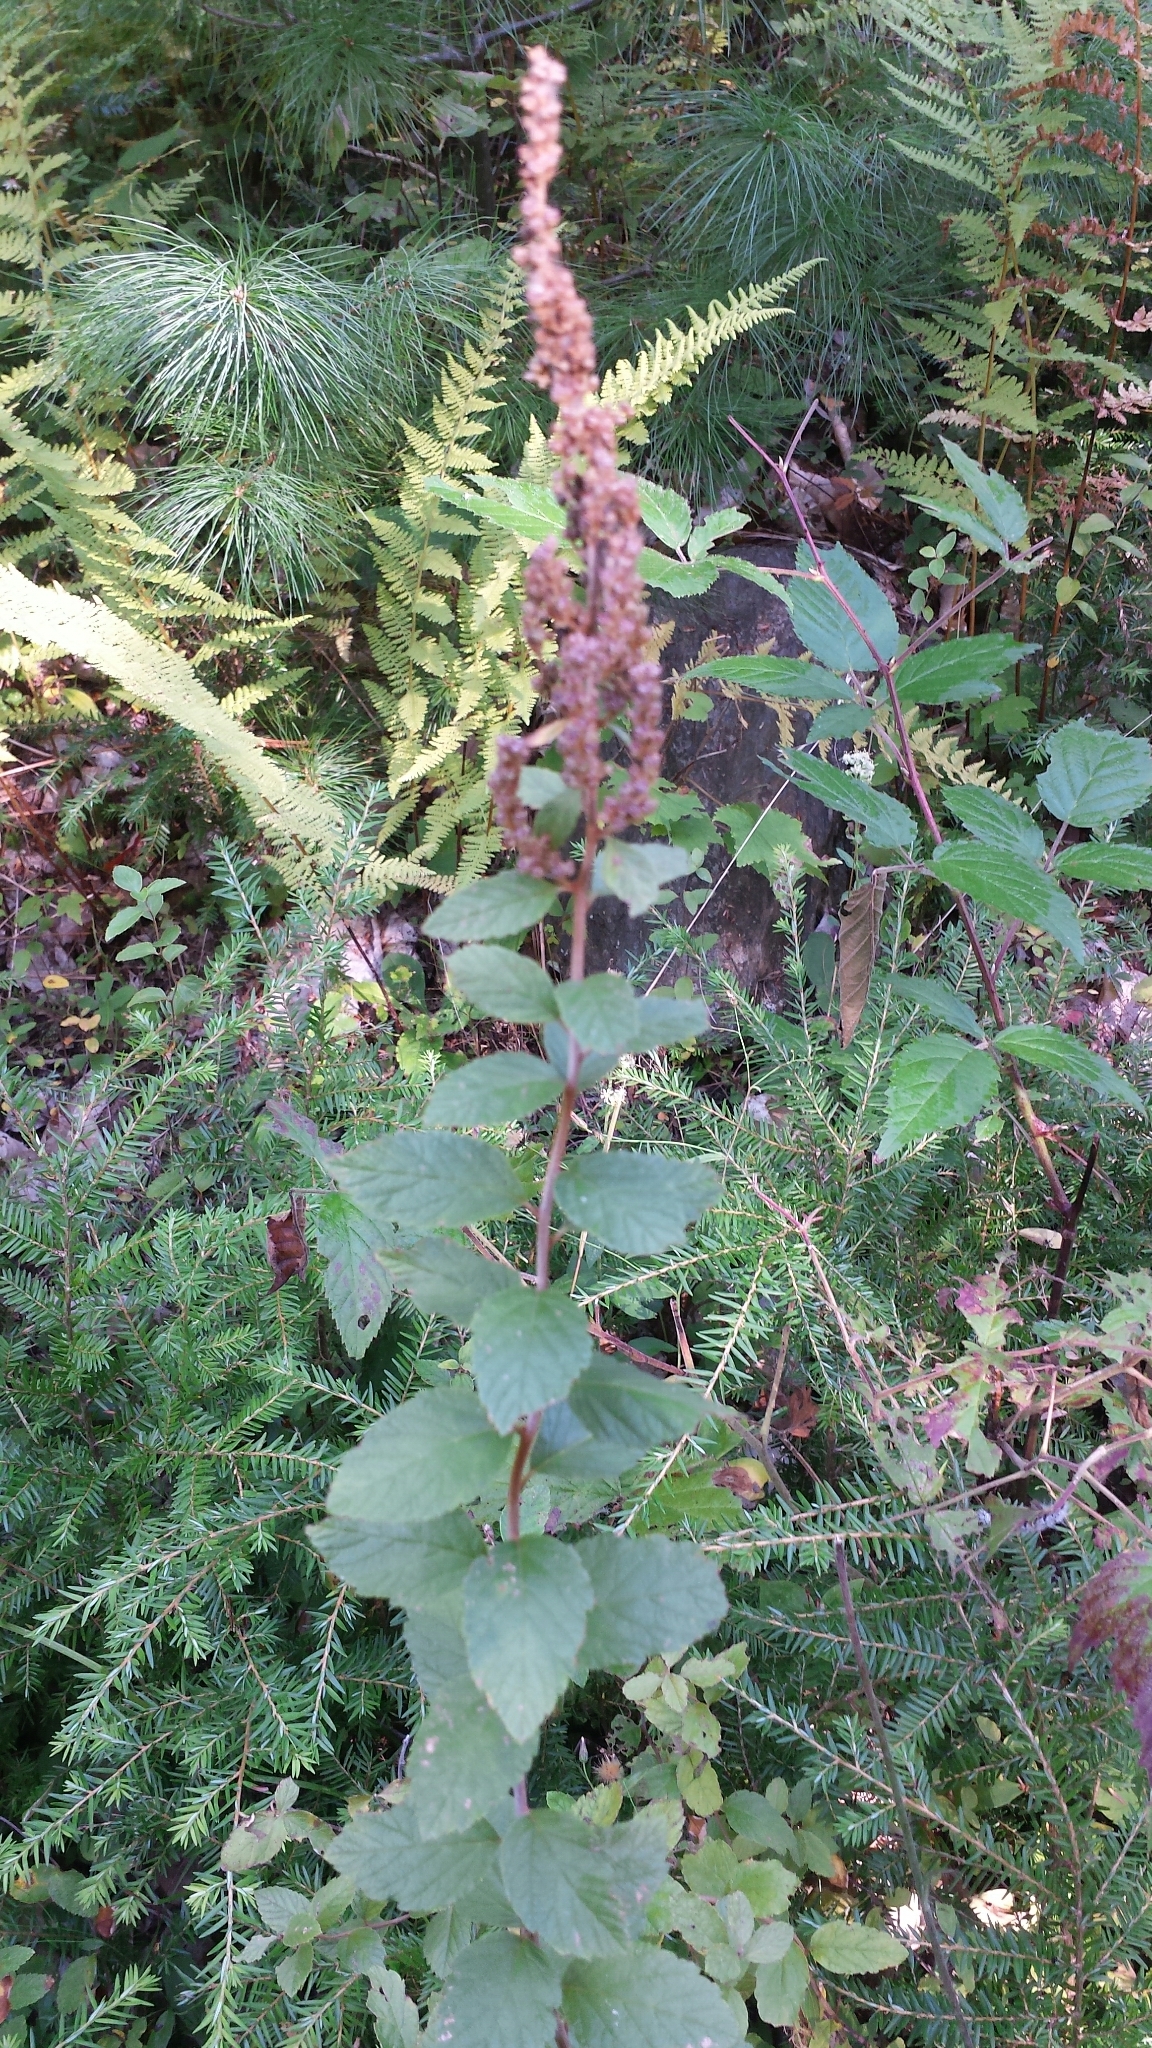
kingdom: Plantae
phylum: Tracheophyta
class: Magnoliopsida
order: Rosales
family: Rosaceae
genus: Spiraea
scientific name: Spiraea tomentosa
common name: Hardhack
